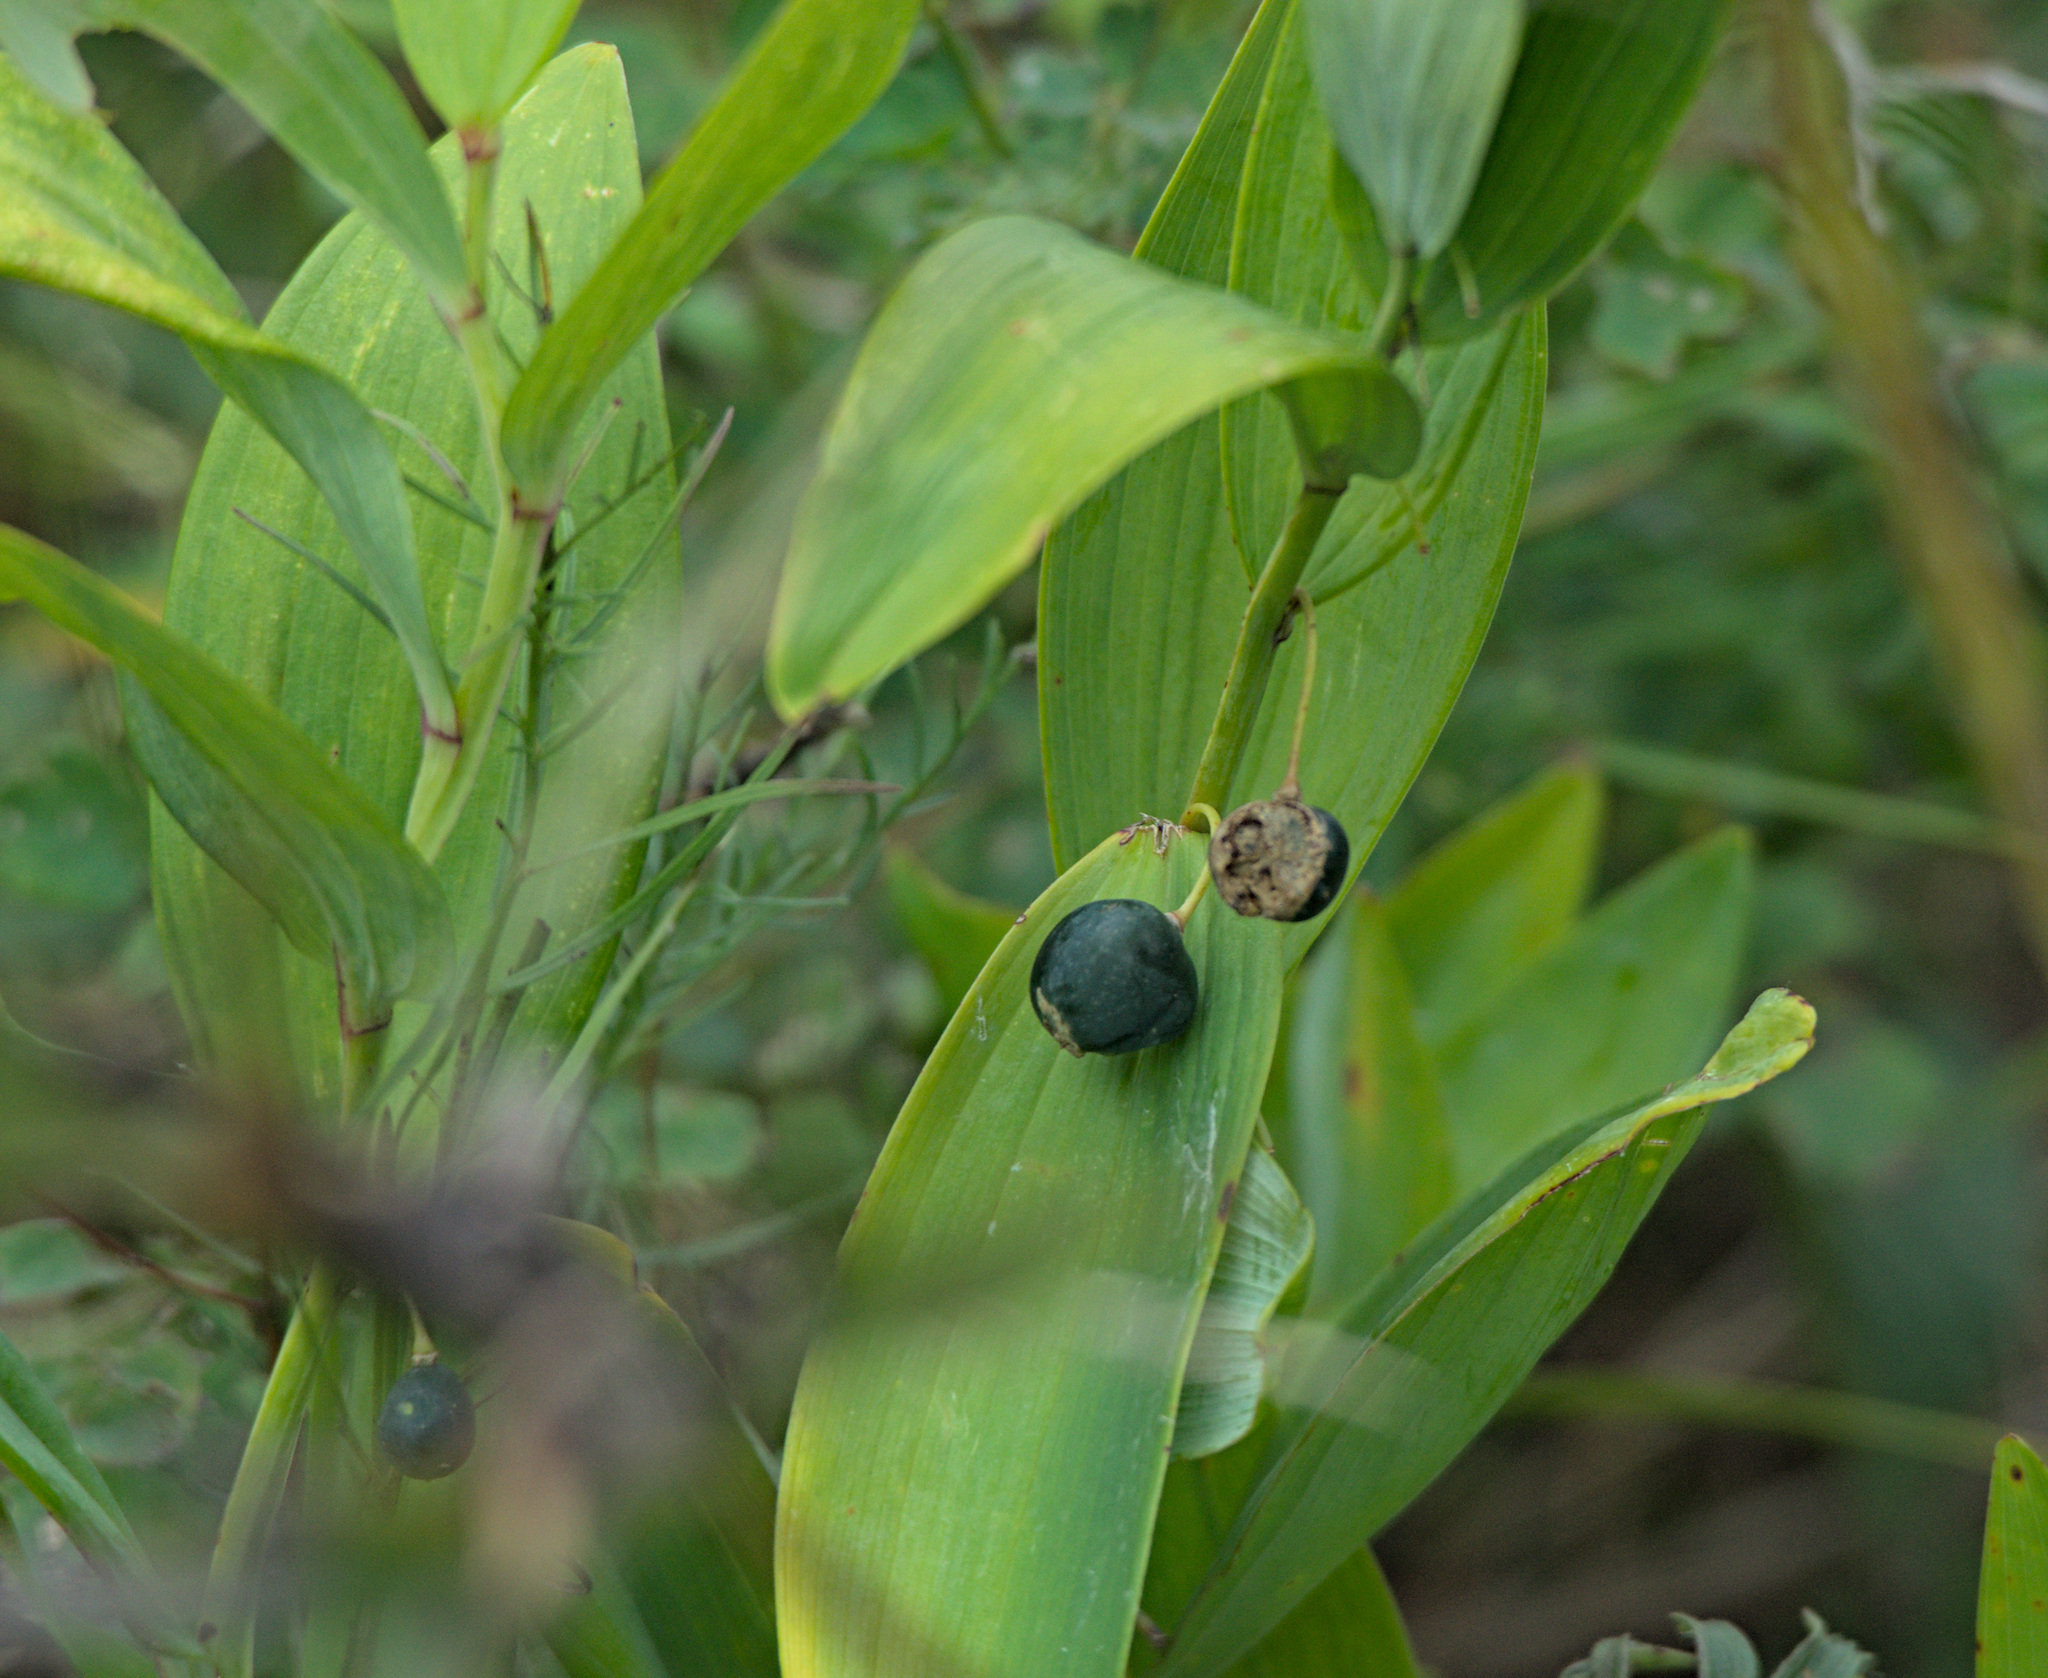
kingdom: Plantae
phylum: Tracheophyta
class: Liliopsida
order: Asparagales
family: Asparagaceae
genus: Polygonatum
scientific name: Polygonatum odoratum
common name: Angular solomon's-seal
